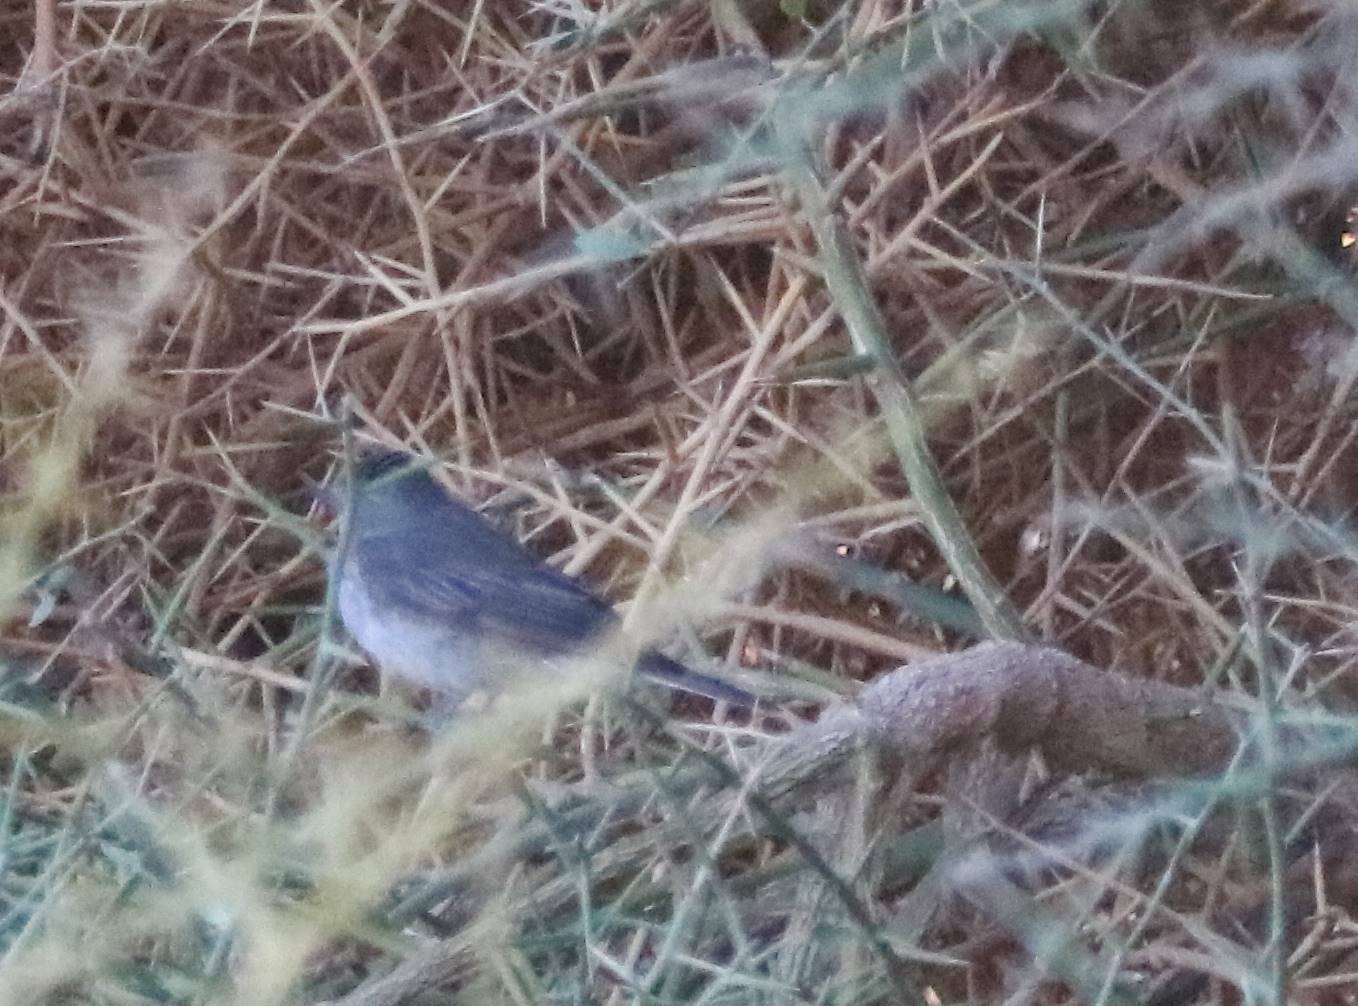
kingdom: Animalia
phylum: Chordata
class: Aves
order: Passeriformes
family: Sylviidae
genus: Curruca
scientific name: Curruca melanocephala
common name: Sardinian warbler
